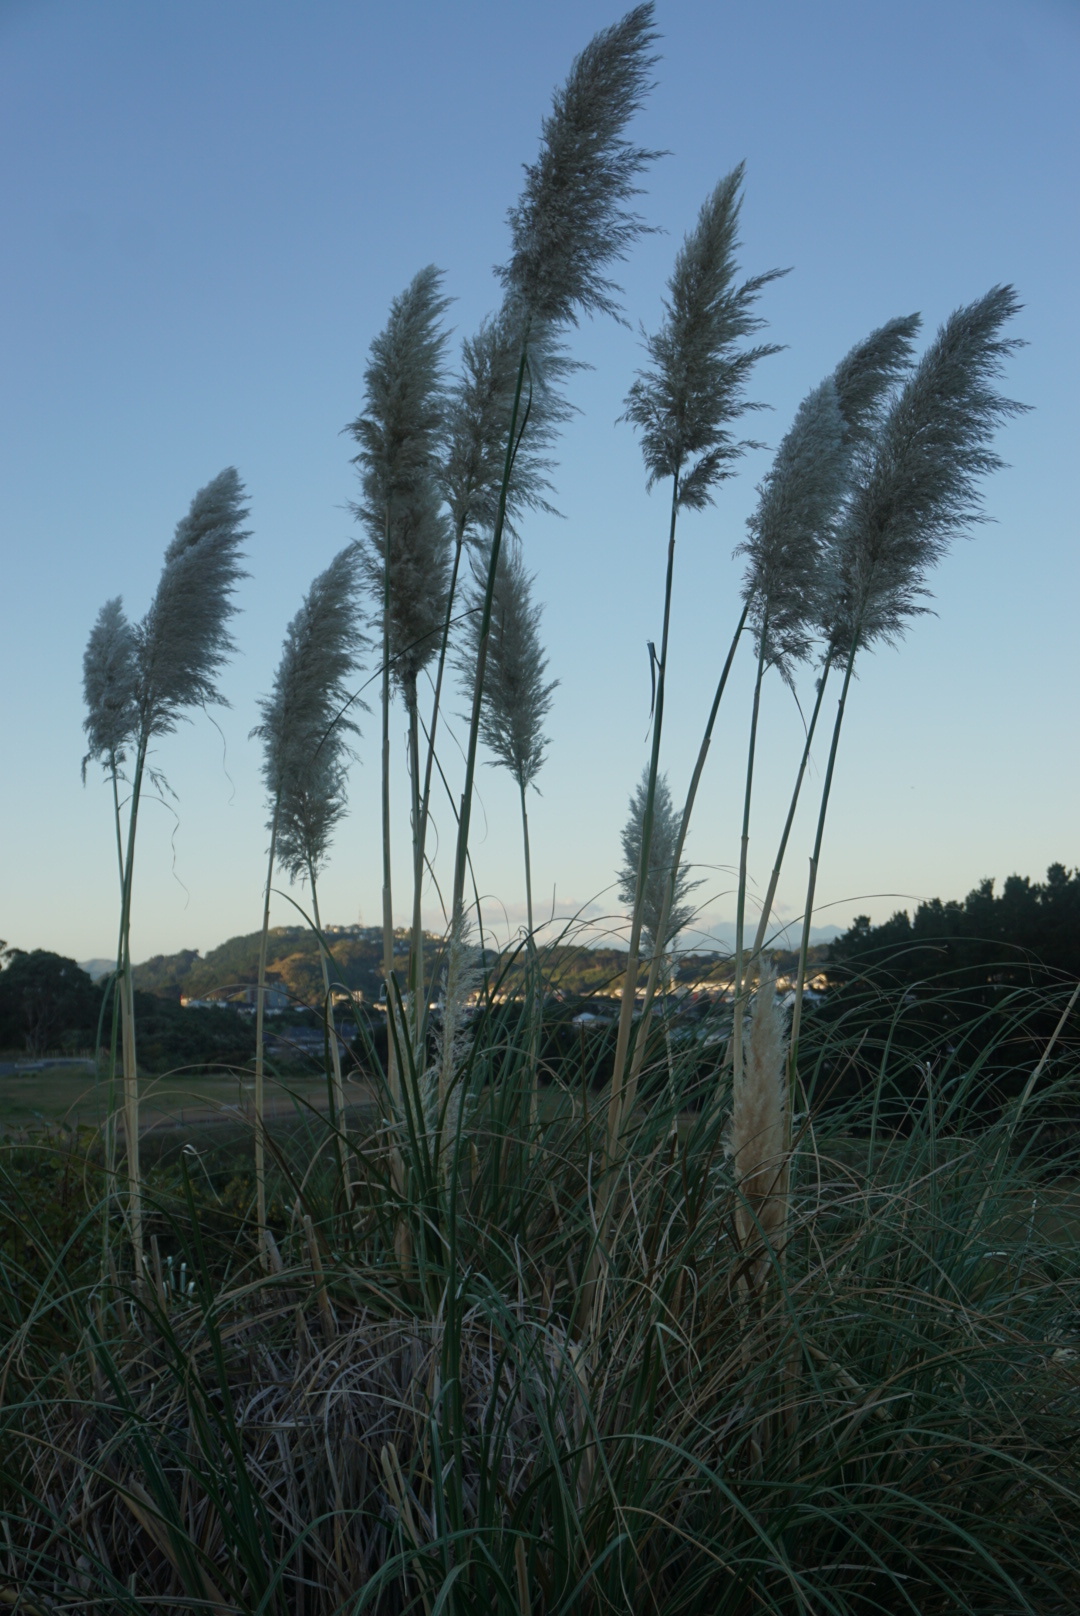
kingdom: Plantae
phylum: Tracheophyta
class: Liliopsida
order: Poales
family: Poaceae
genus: Cortaderia
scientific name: Cortaderia selloana
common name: Uruguayan pampas grass
